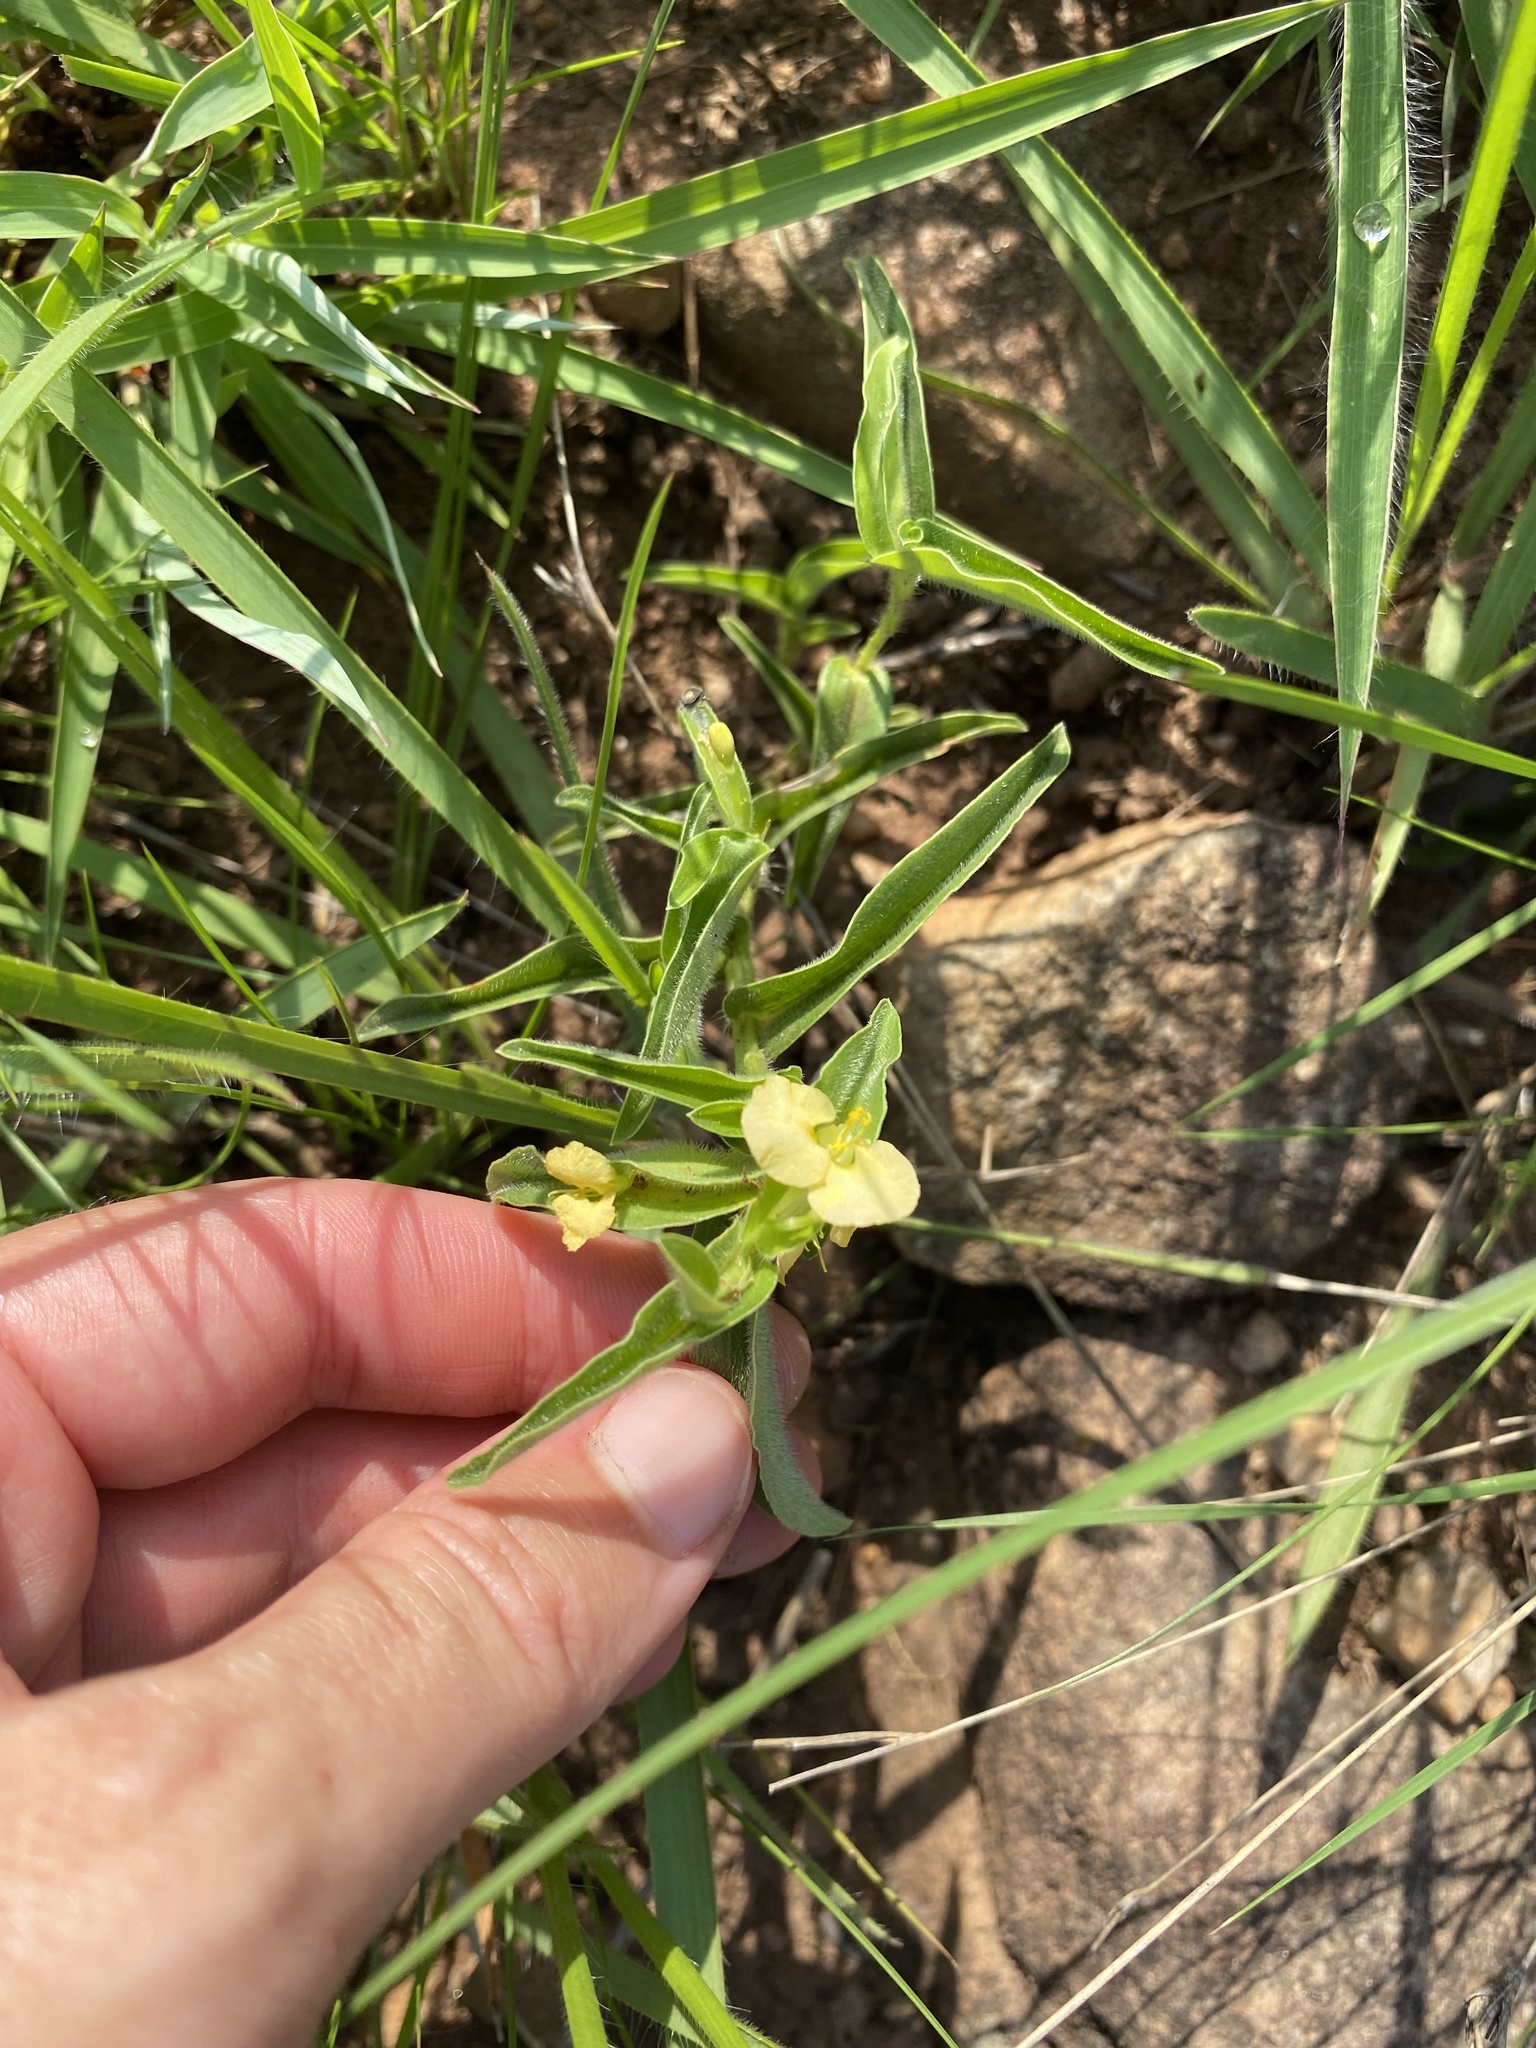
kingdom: Plantae
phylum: Tracheophyta
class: Liliopsida
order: Commelinales
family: Commelinaceae
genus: Commelina
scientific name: Commelina africana
